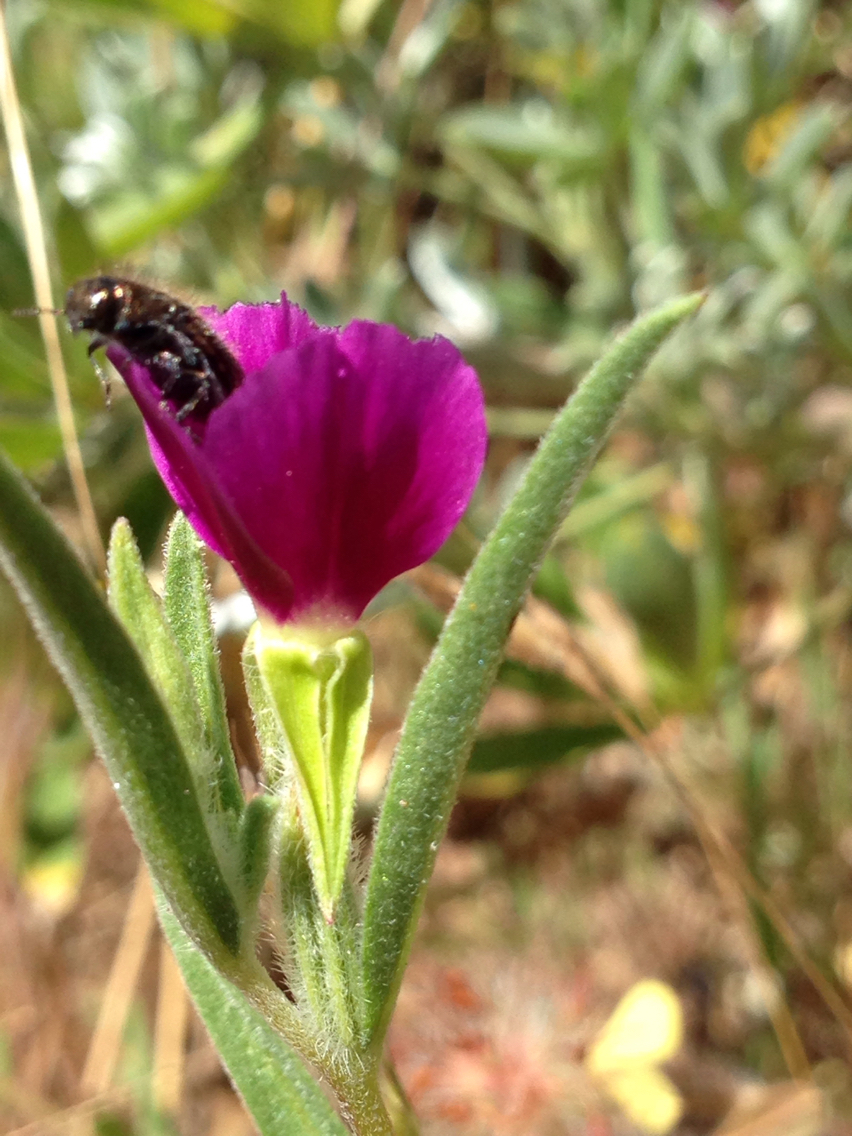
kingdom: Plantae
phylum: Tracheophyta
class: Magnoliopsida
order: Myrtales
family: Onagraceae
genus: Clarkia
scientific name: Clarkia purpurea
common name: Purple clarkia
